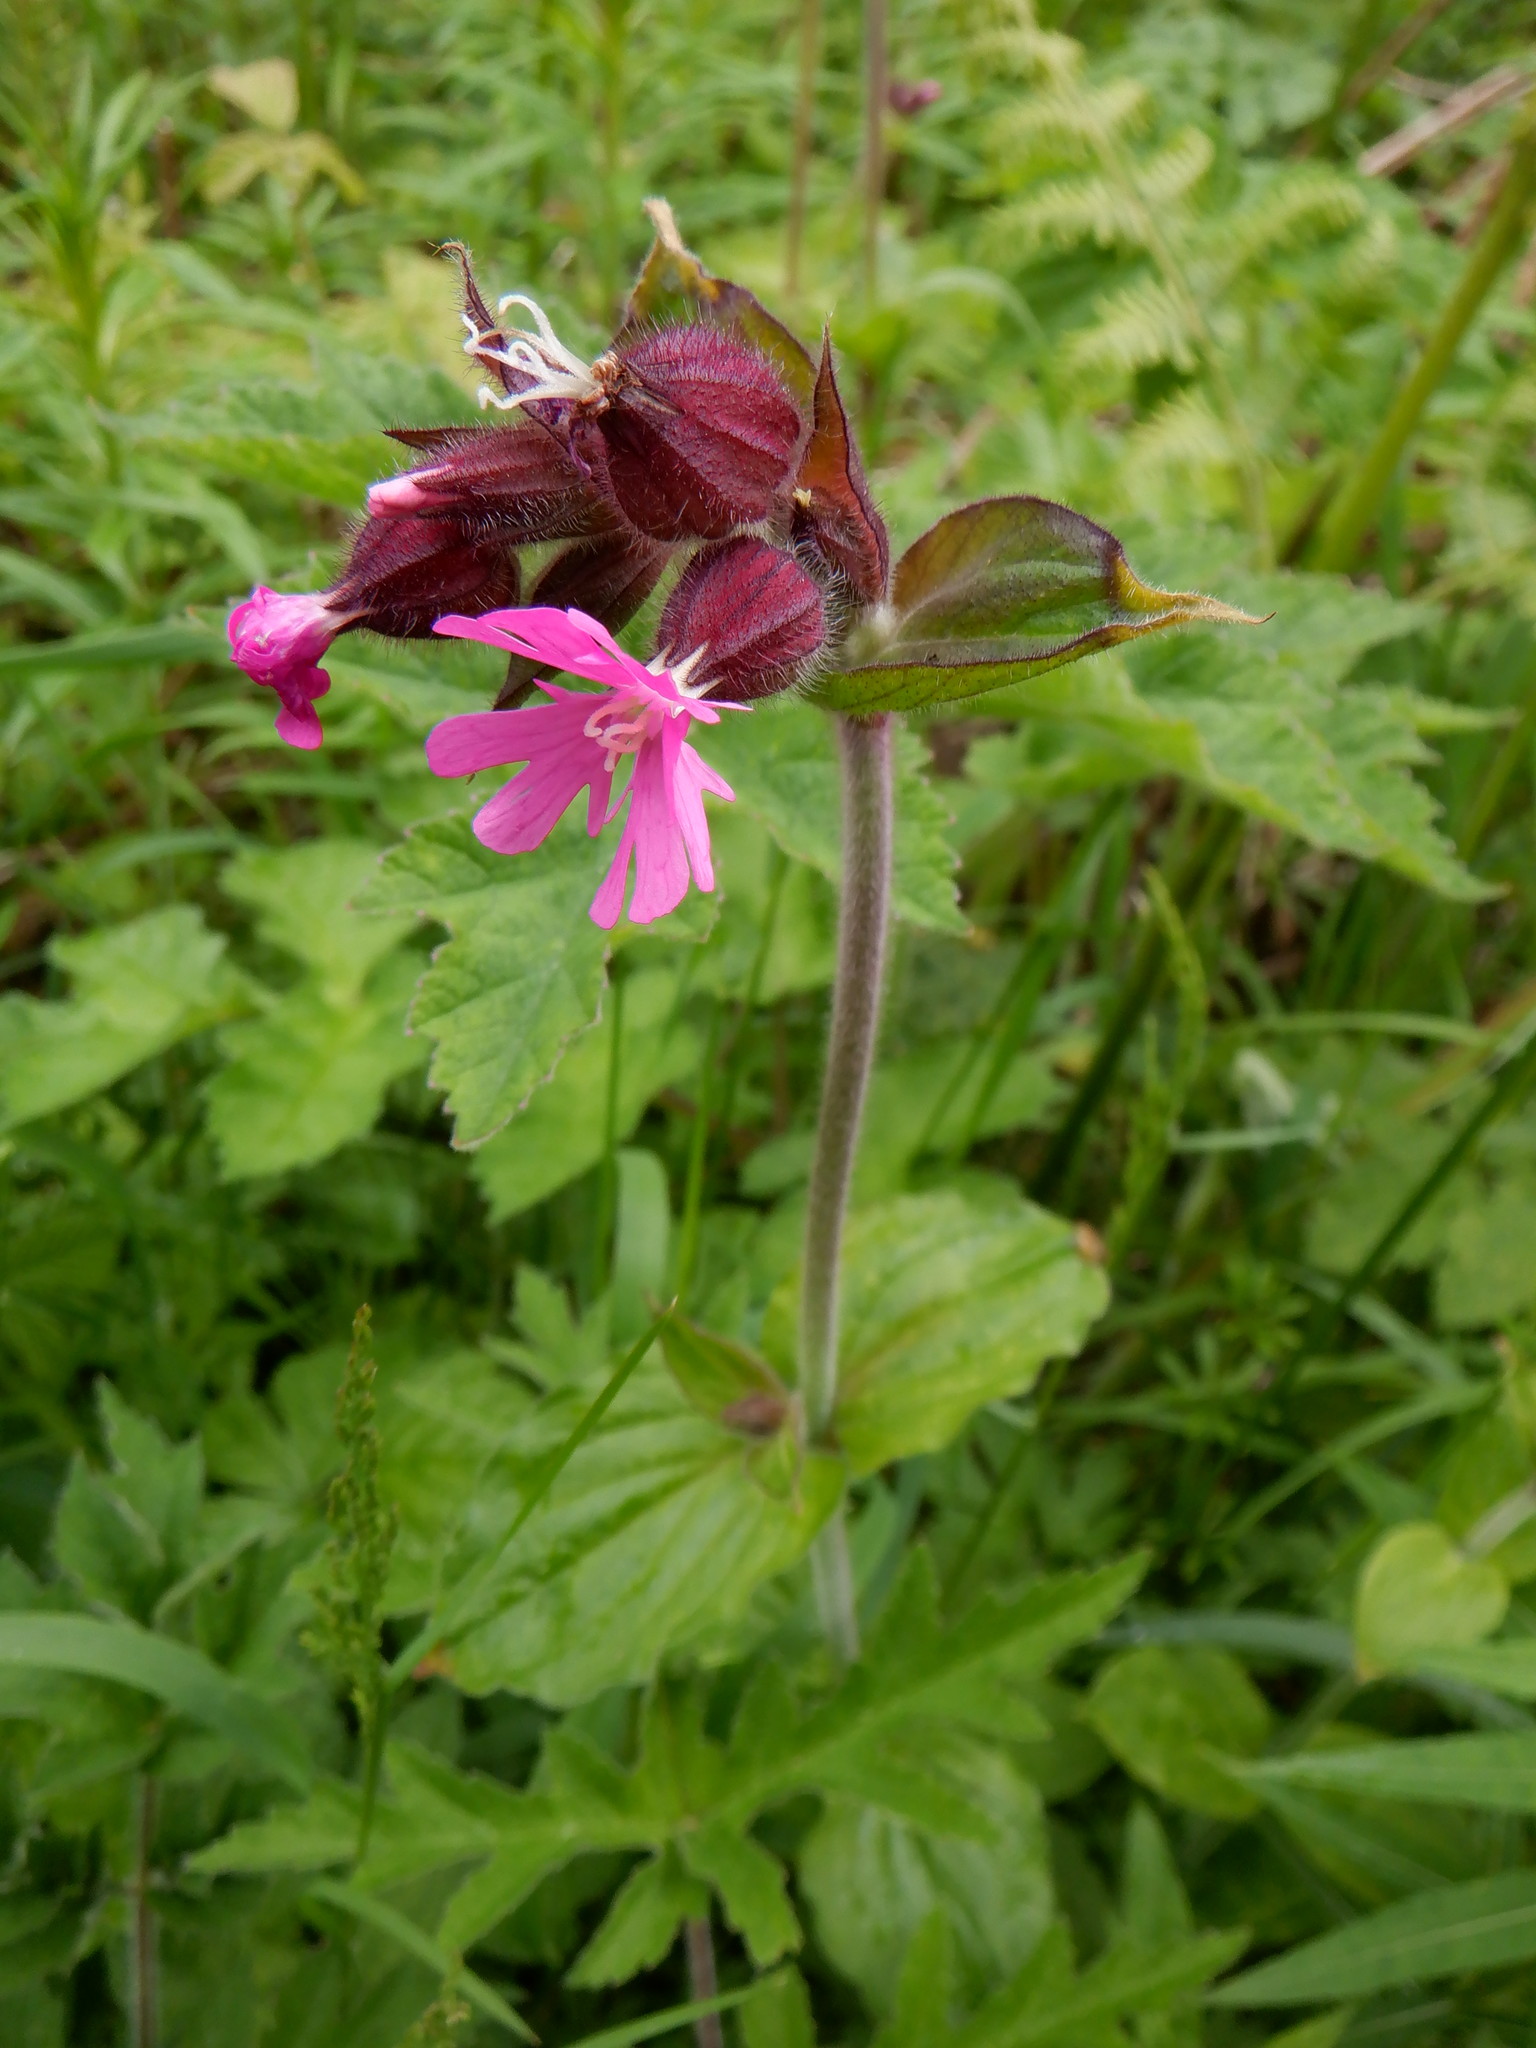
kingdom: Plantae
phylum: Tracheophyta
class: Magnoliopsida
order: Caryophyllales
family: Caryophyllaceae
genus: Silene
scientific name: Silene dioica
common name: Red campion
